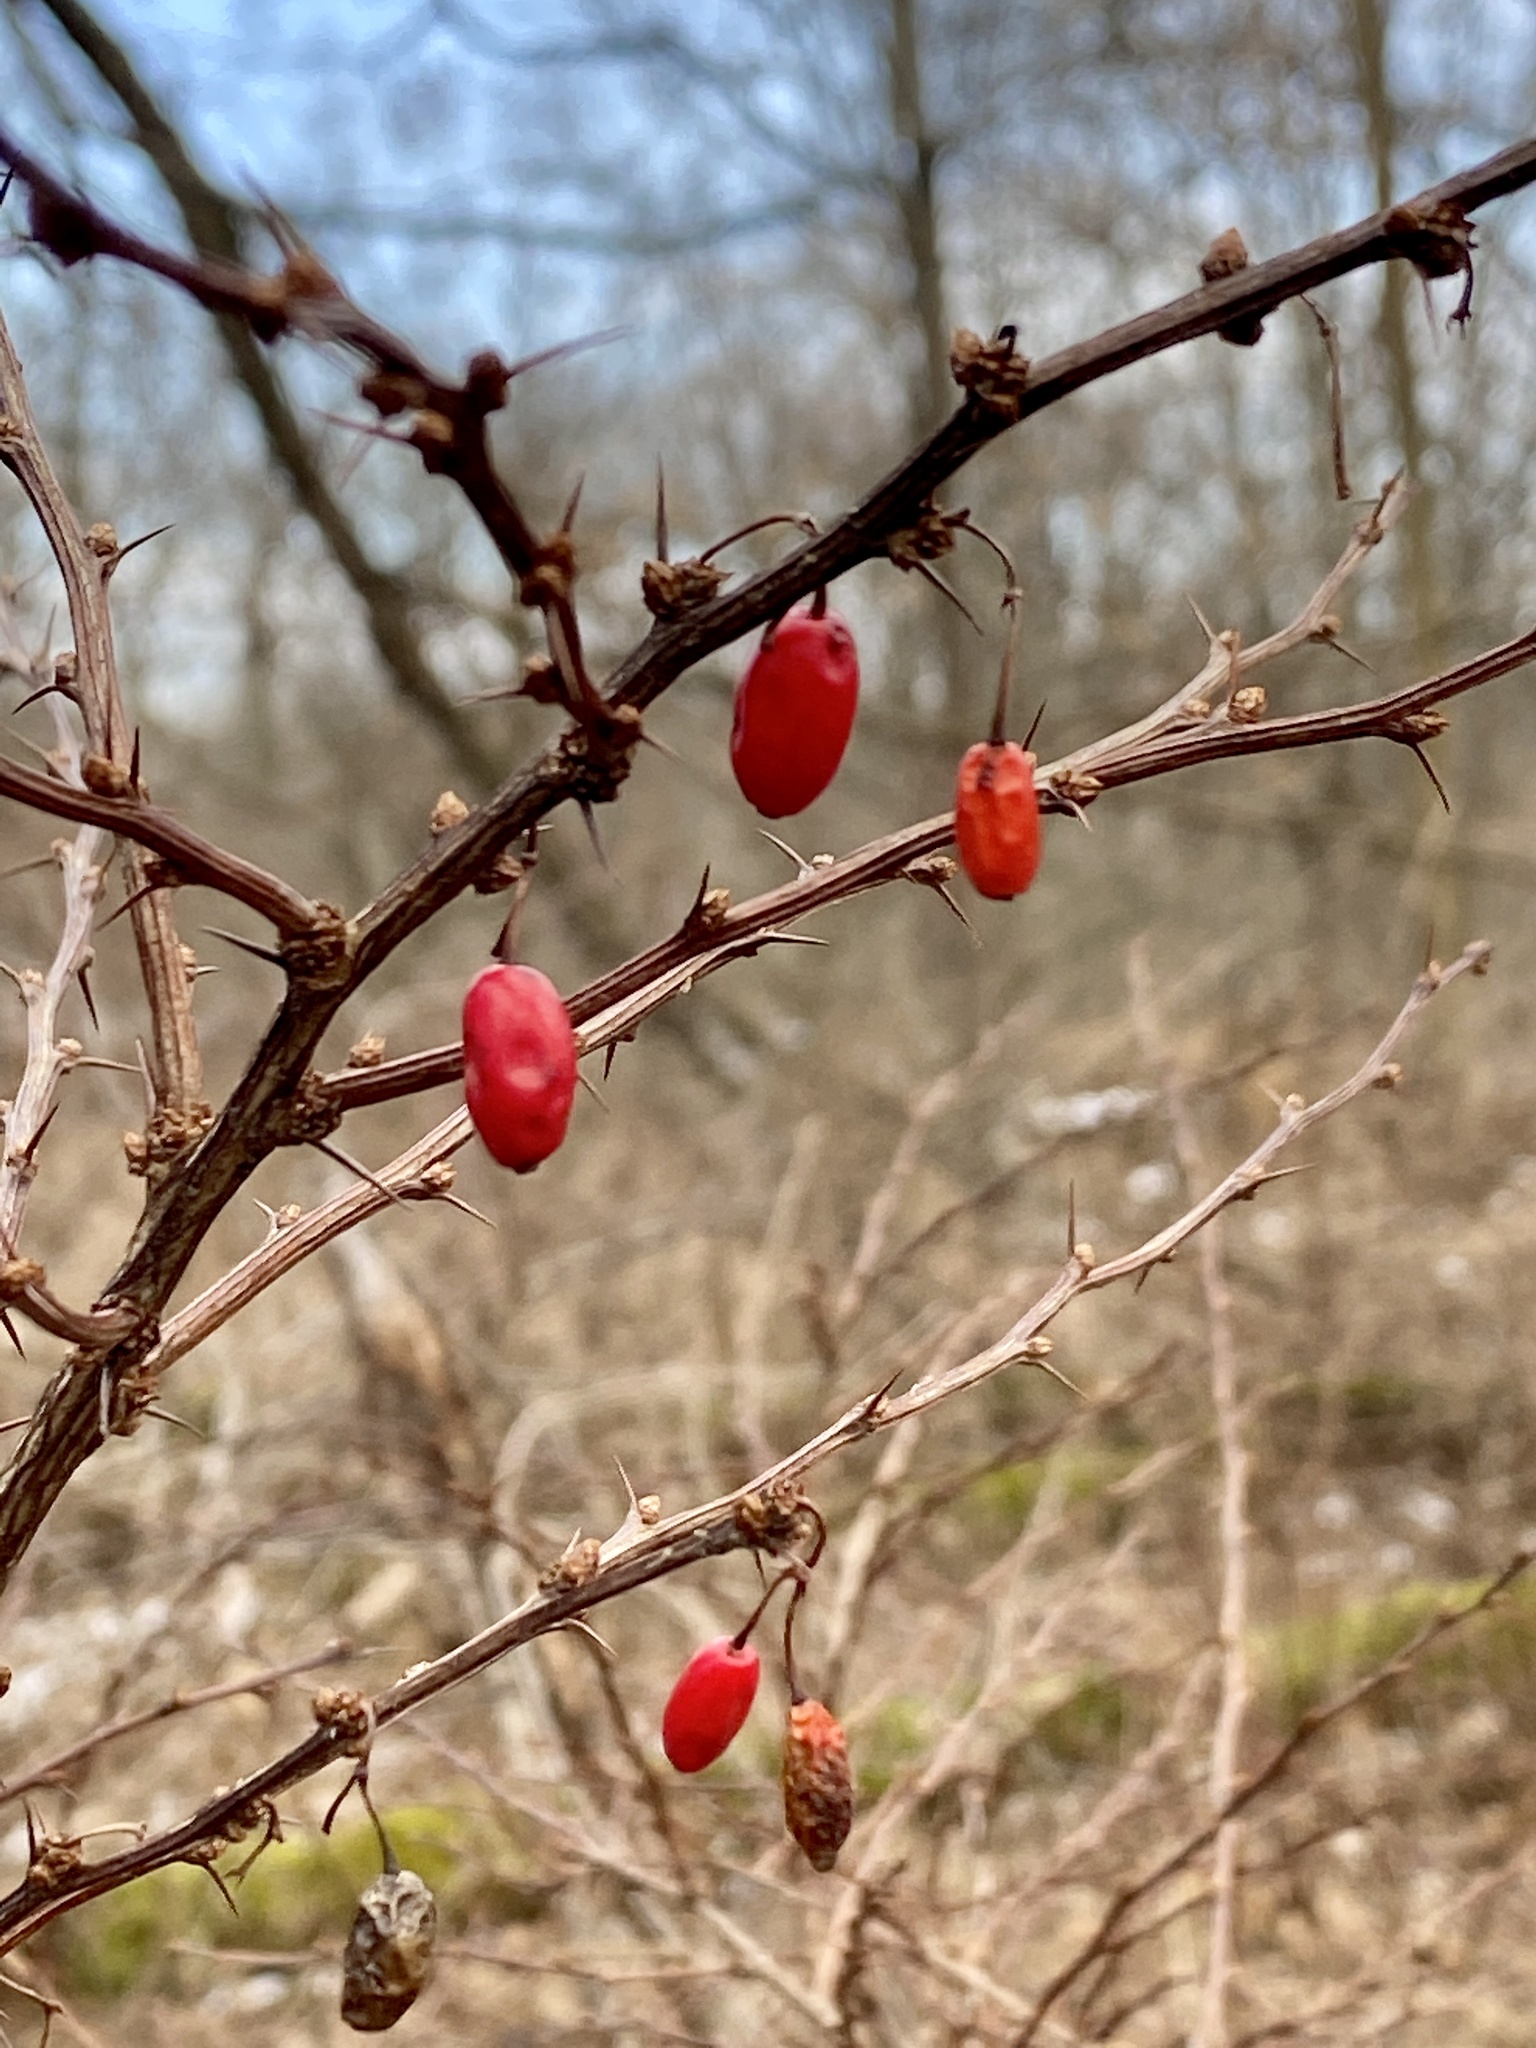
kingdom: Plantae
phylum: Tracheophyta
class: Magnoliopsida
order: Ranunculales
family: Berberidaceae
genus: Berberis
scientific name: Berberis thunbergii
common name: Japanese barberry
